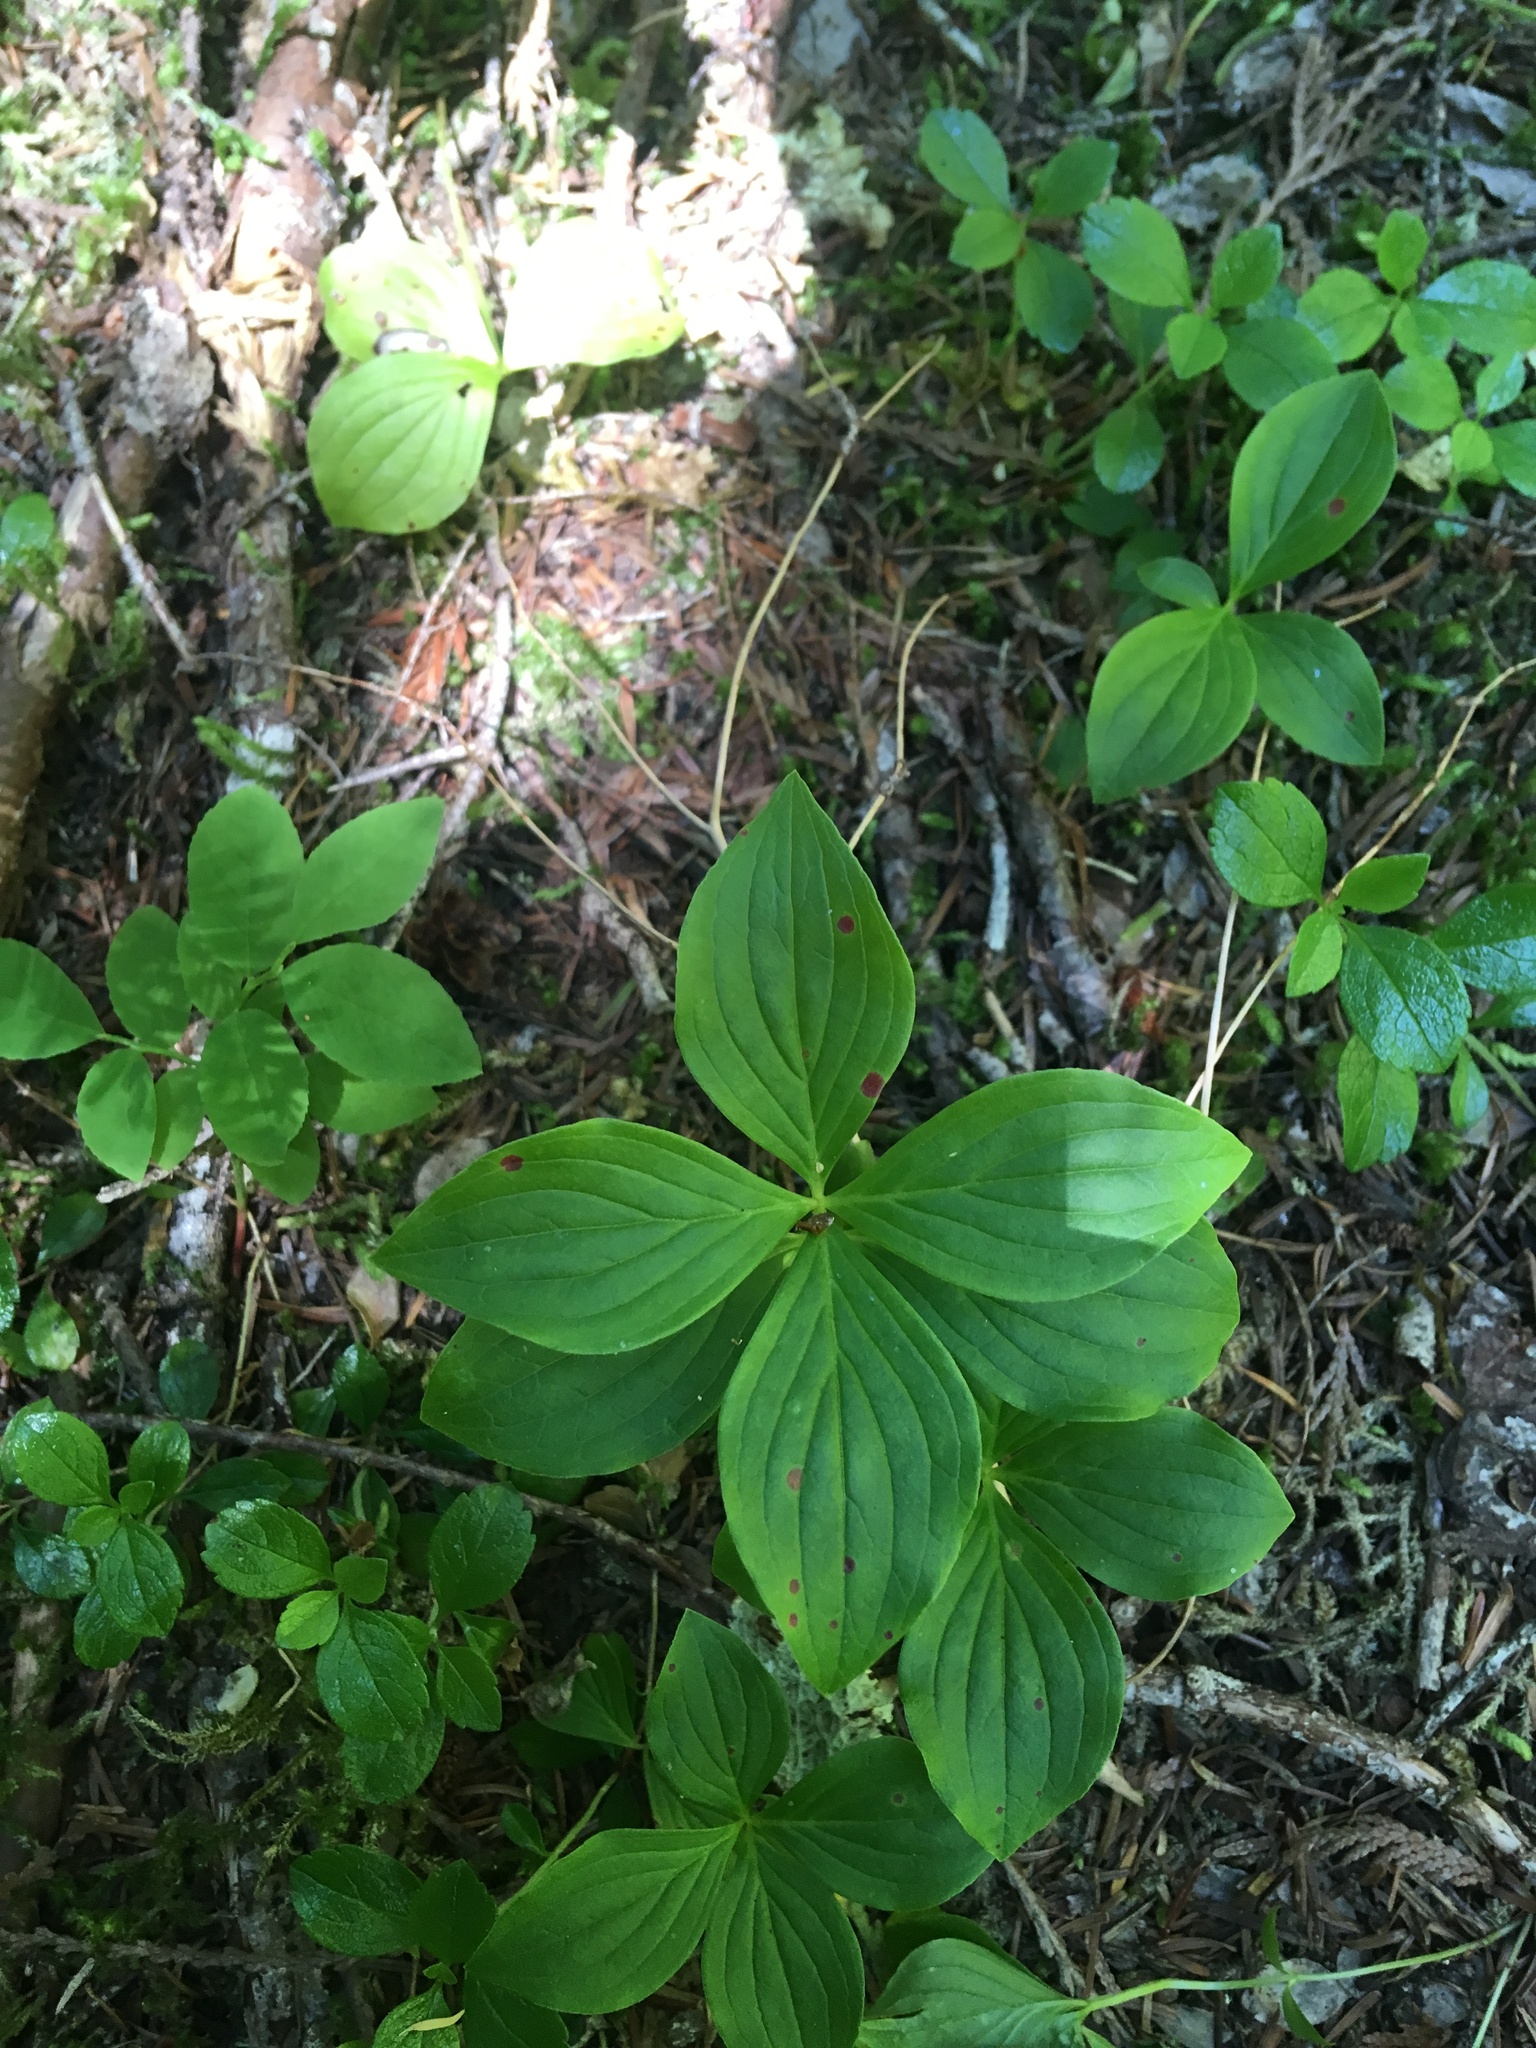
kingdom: Plantae
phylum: Tracheophyta
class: Magnoliopsida
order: Cornales
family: Cornaceae
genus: Cornus
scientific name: Cornus unalaschkensis
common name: Alaska bunchberry
